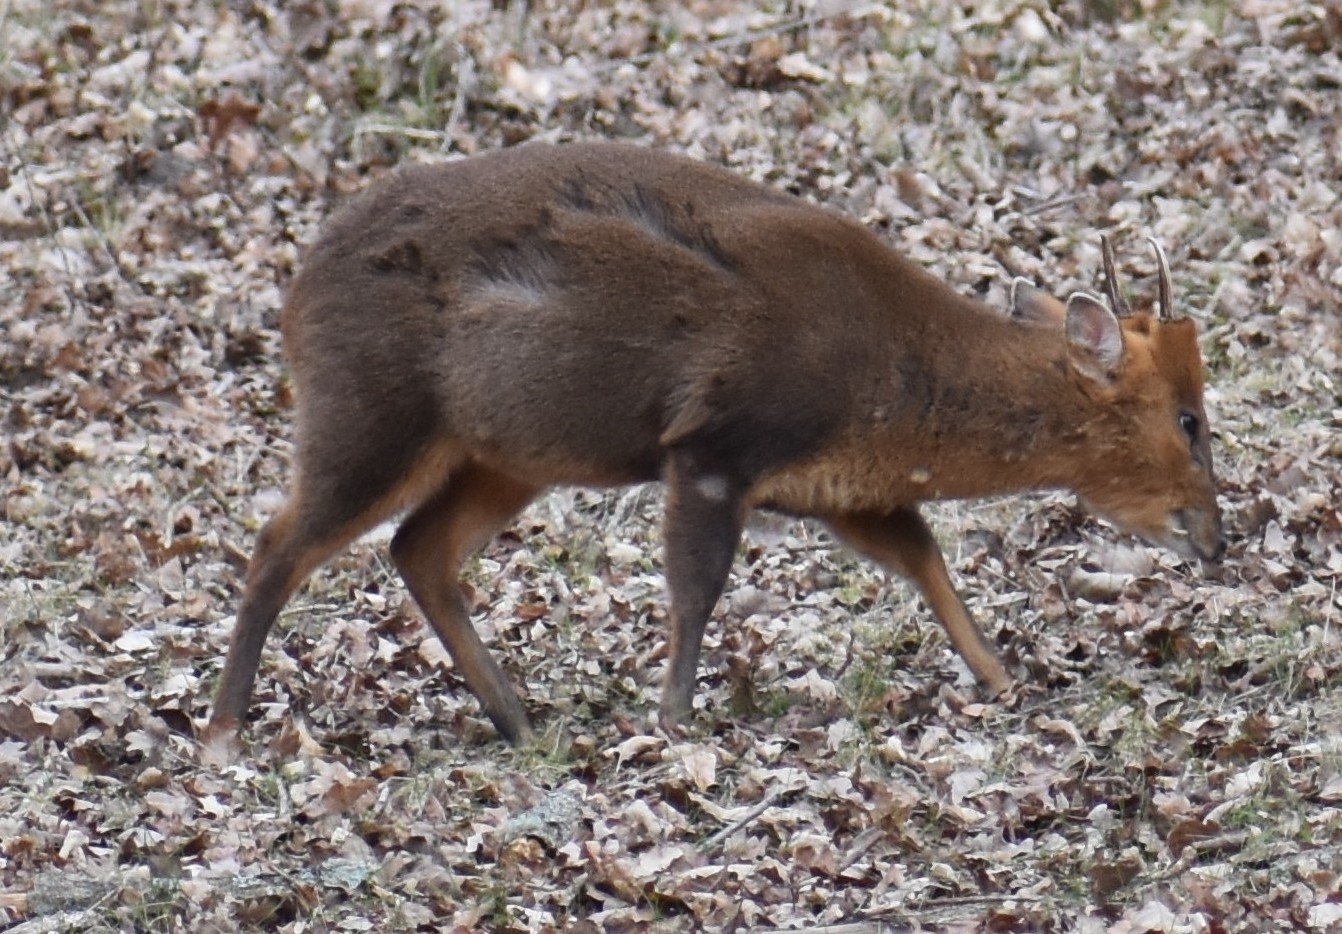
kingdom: Animalia
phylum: Chordata
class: Mammalia
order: Artiodactyla
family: Cervidae
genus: Muntiacus
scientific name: Muntiacus reevesi
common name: Reeves' muntjac
